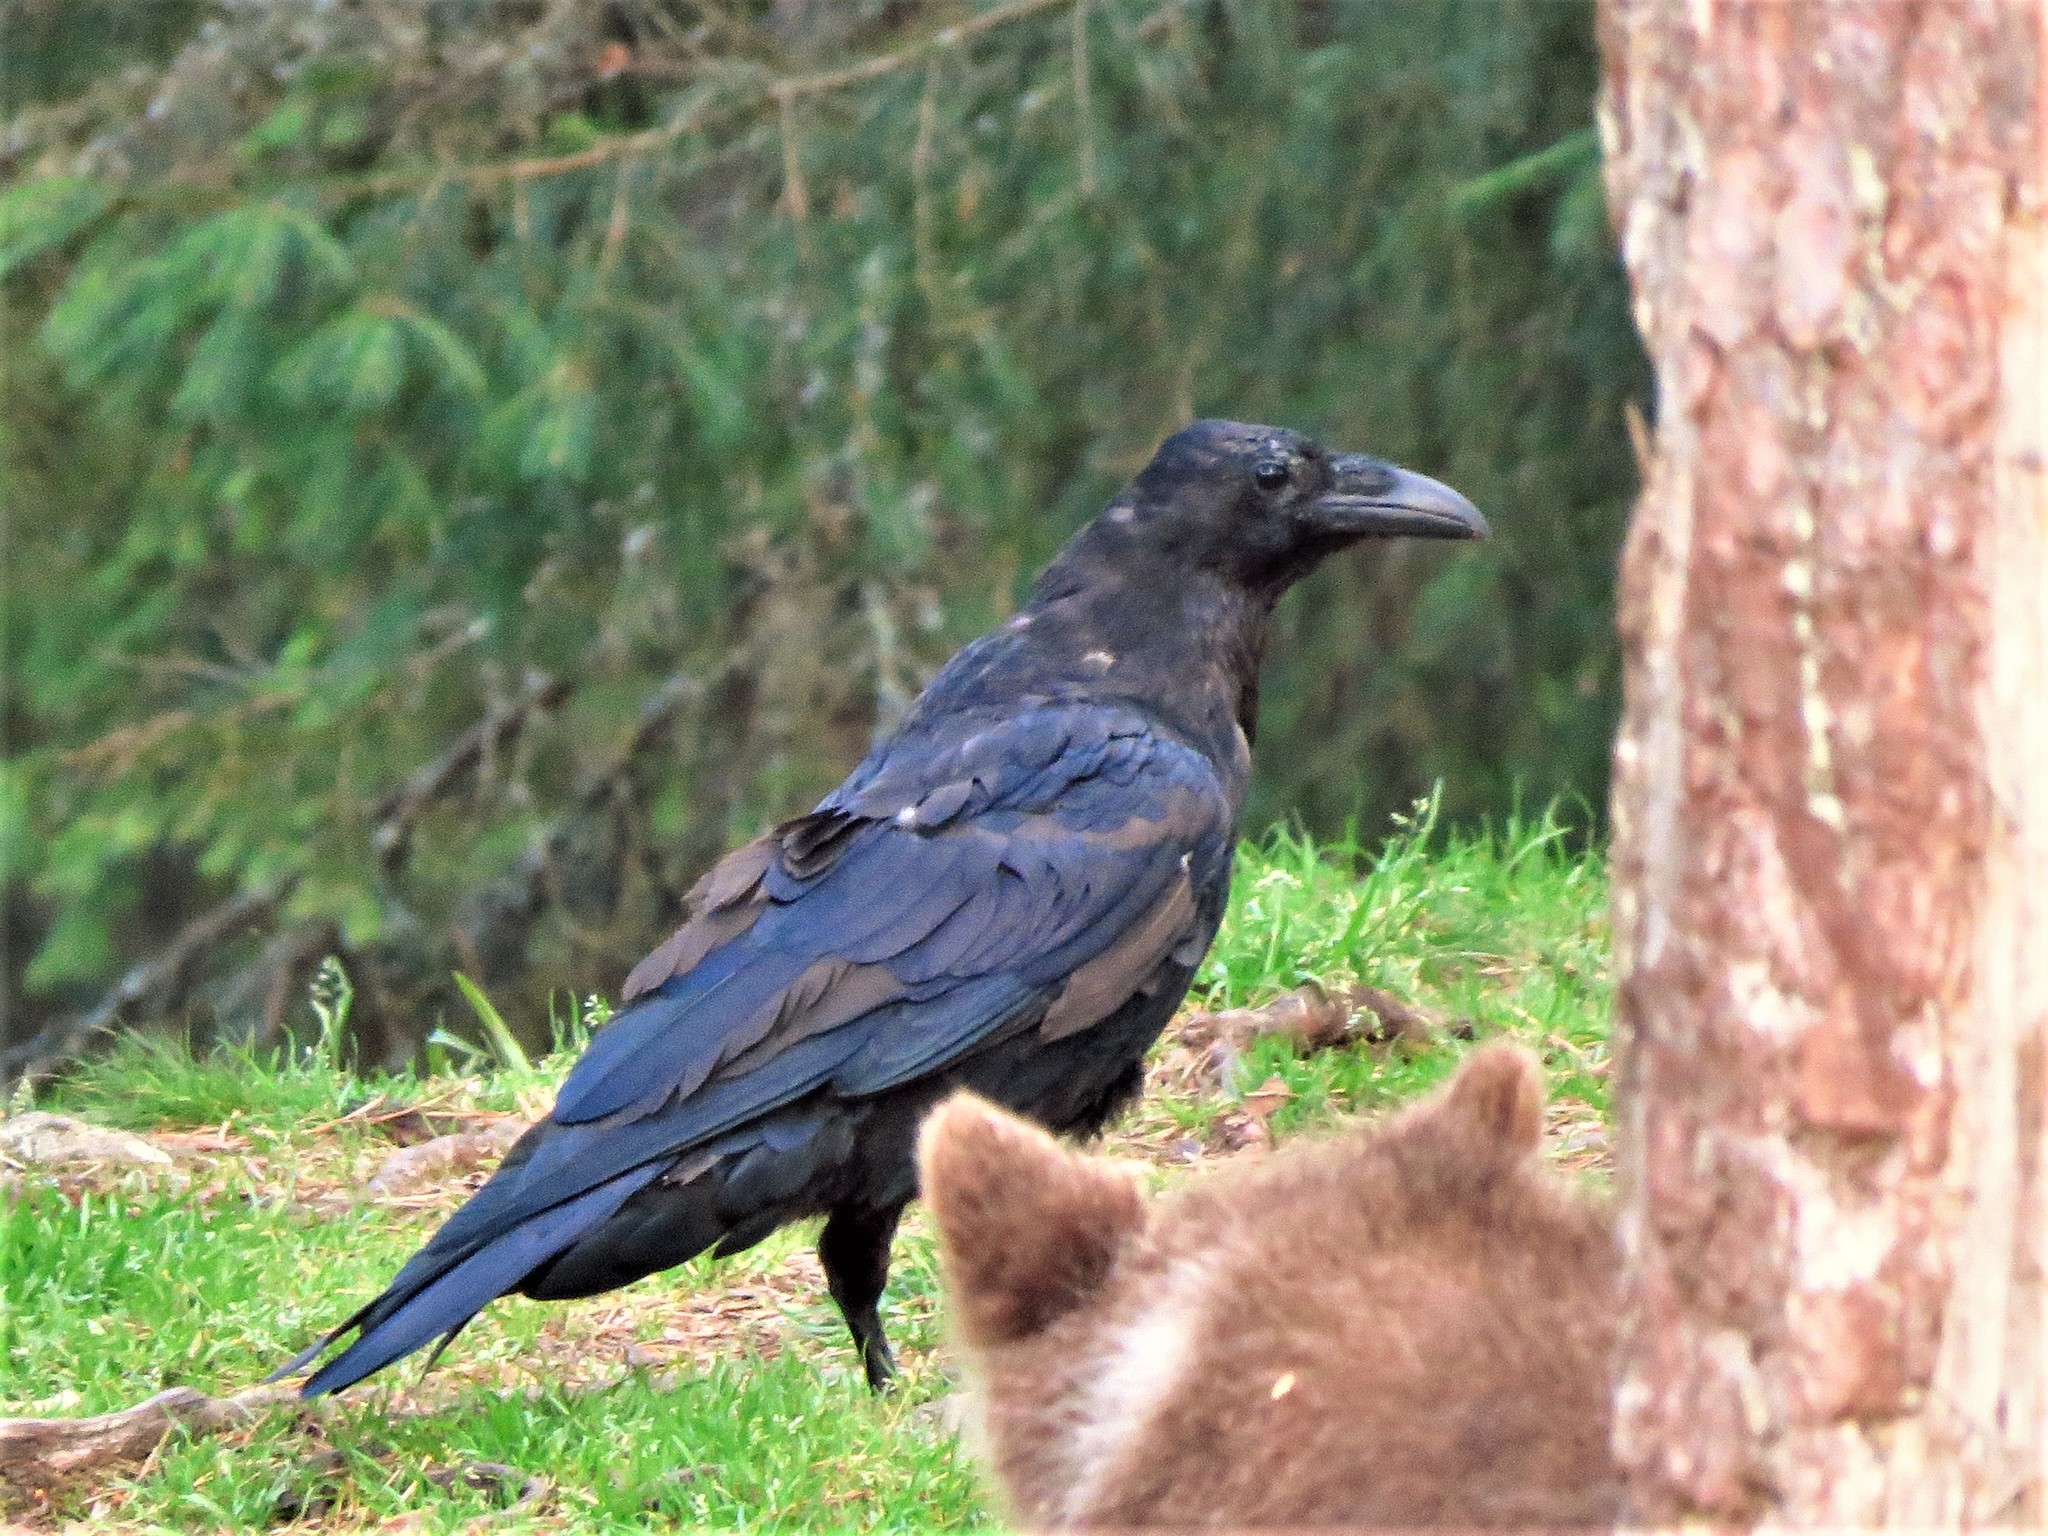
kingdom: Animalia
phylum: Chordata
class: Aves
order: Passeriformes
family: Corvidae
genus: Corvus
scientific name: Corvus corax
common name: Common raven
